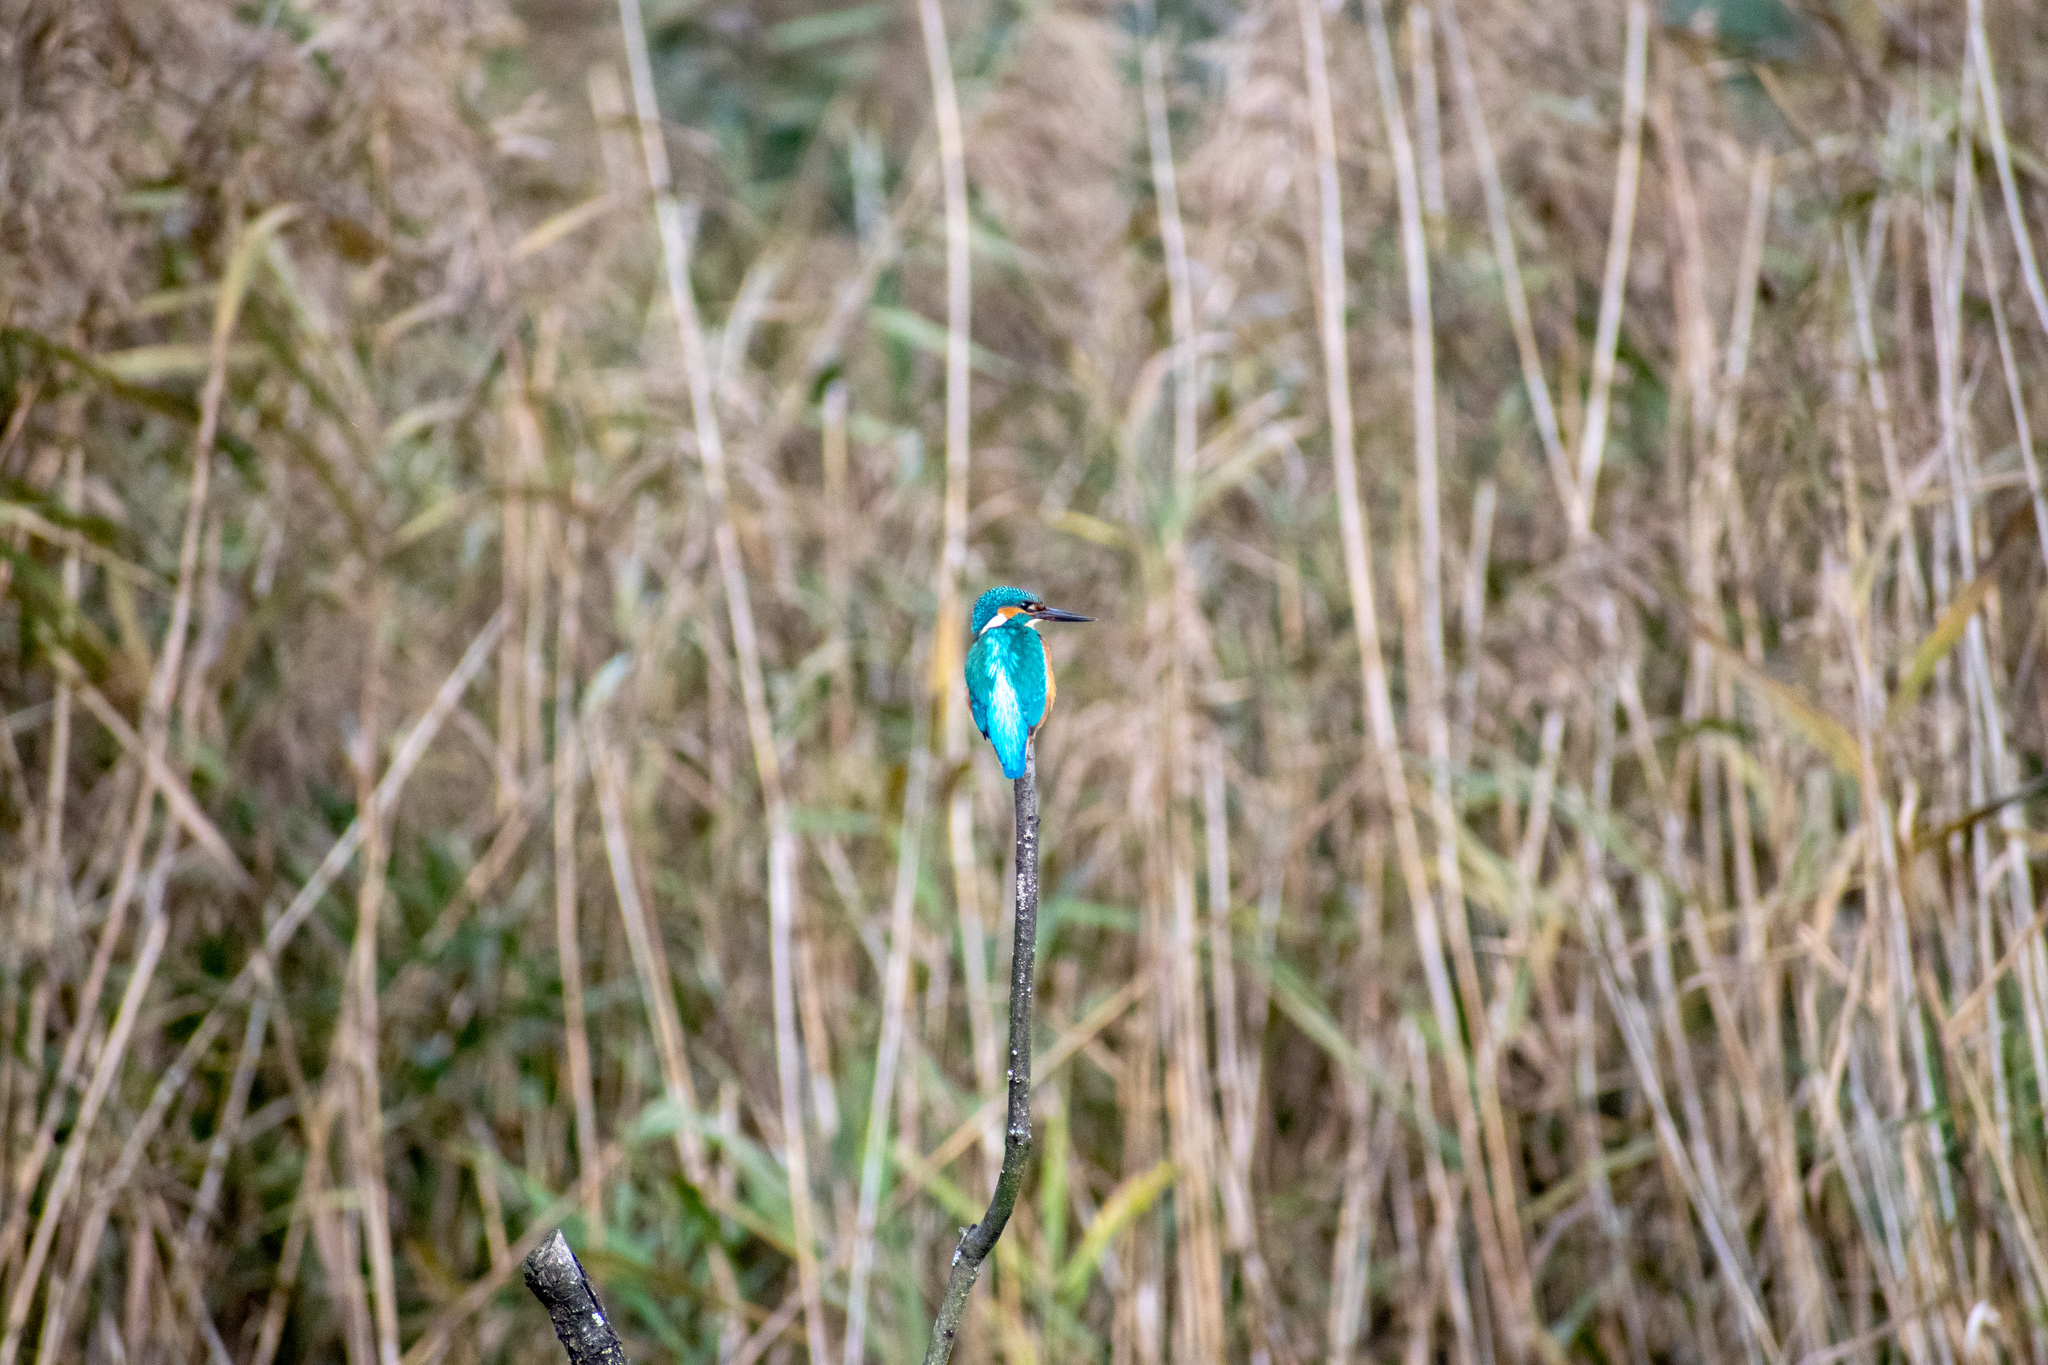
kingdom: Animalia
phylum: Chordata
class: Aves
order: Coraciiformes
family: Alcedinidae
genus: Alcedo
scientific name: Alcedo atthis
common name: Common kingfisher
